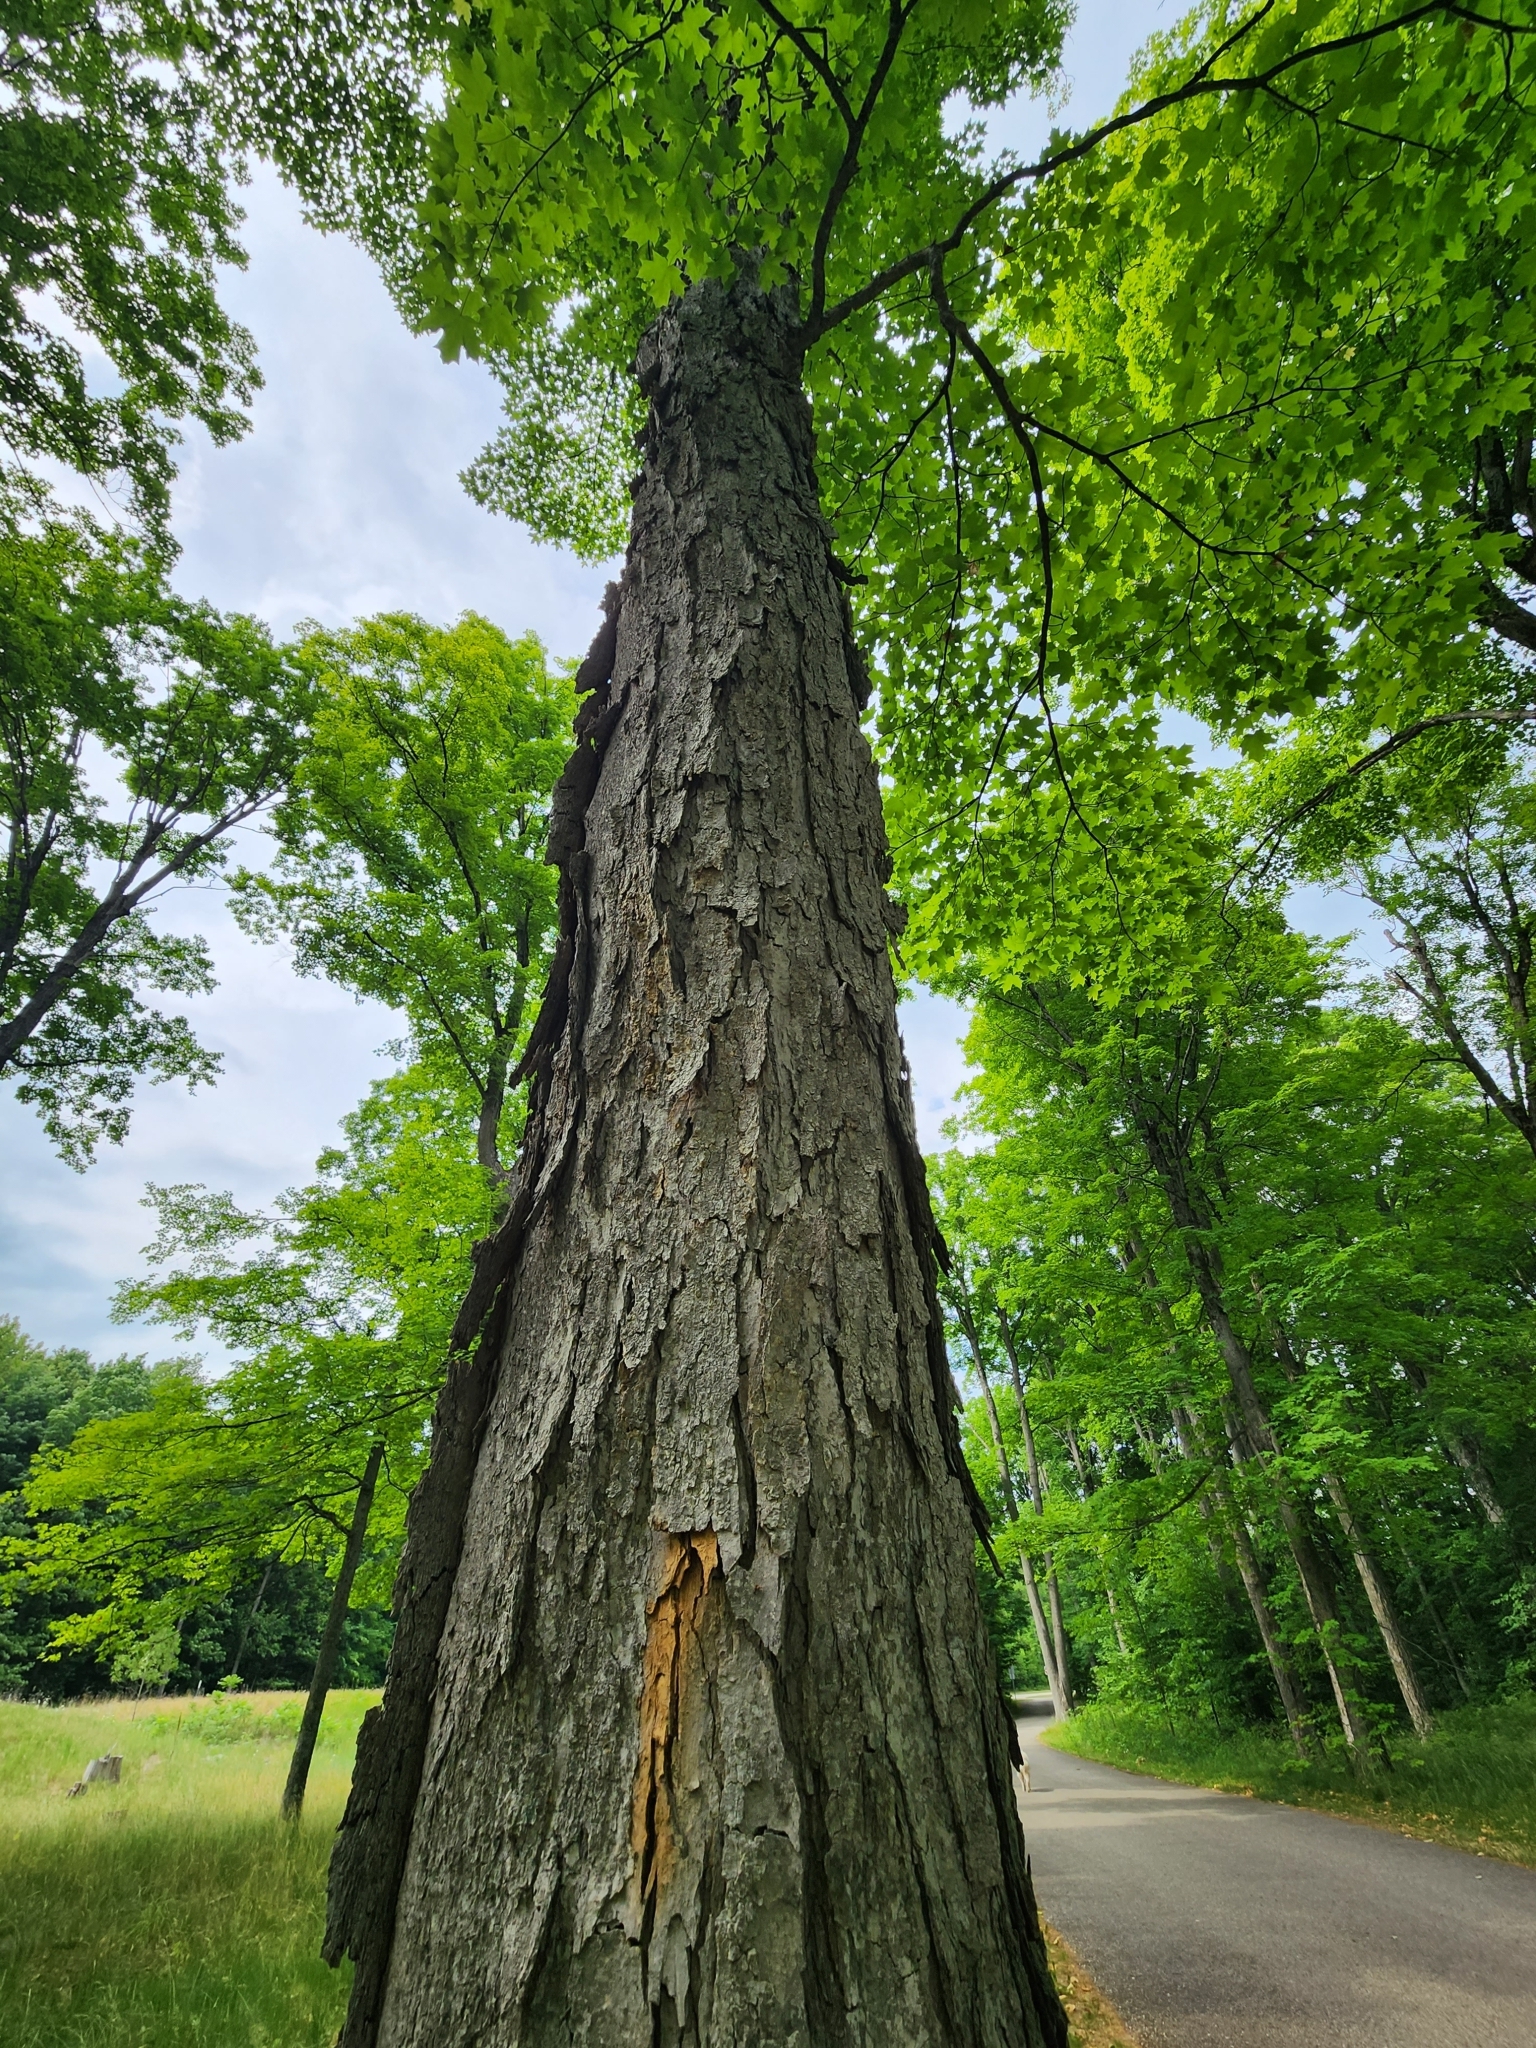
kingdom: Plantae
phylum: Tracheophyta
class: Magnoliopsida
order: Sapindales
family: Sapindaceae
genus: Acer
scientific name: Acer saccharum
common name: Sugar maple
